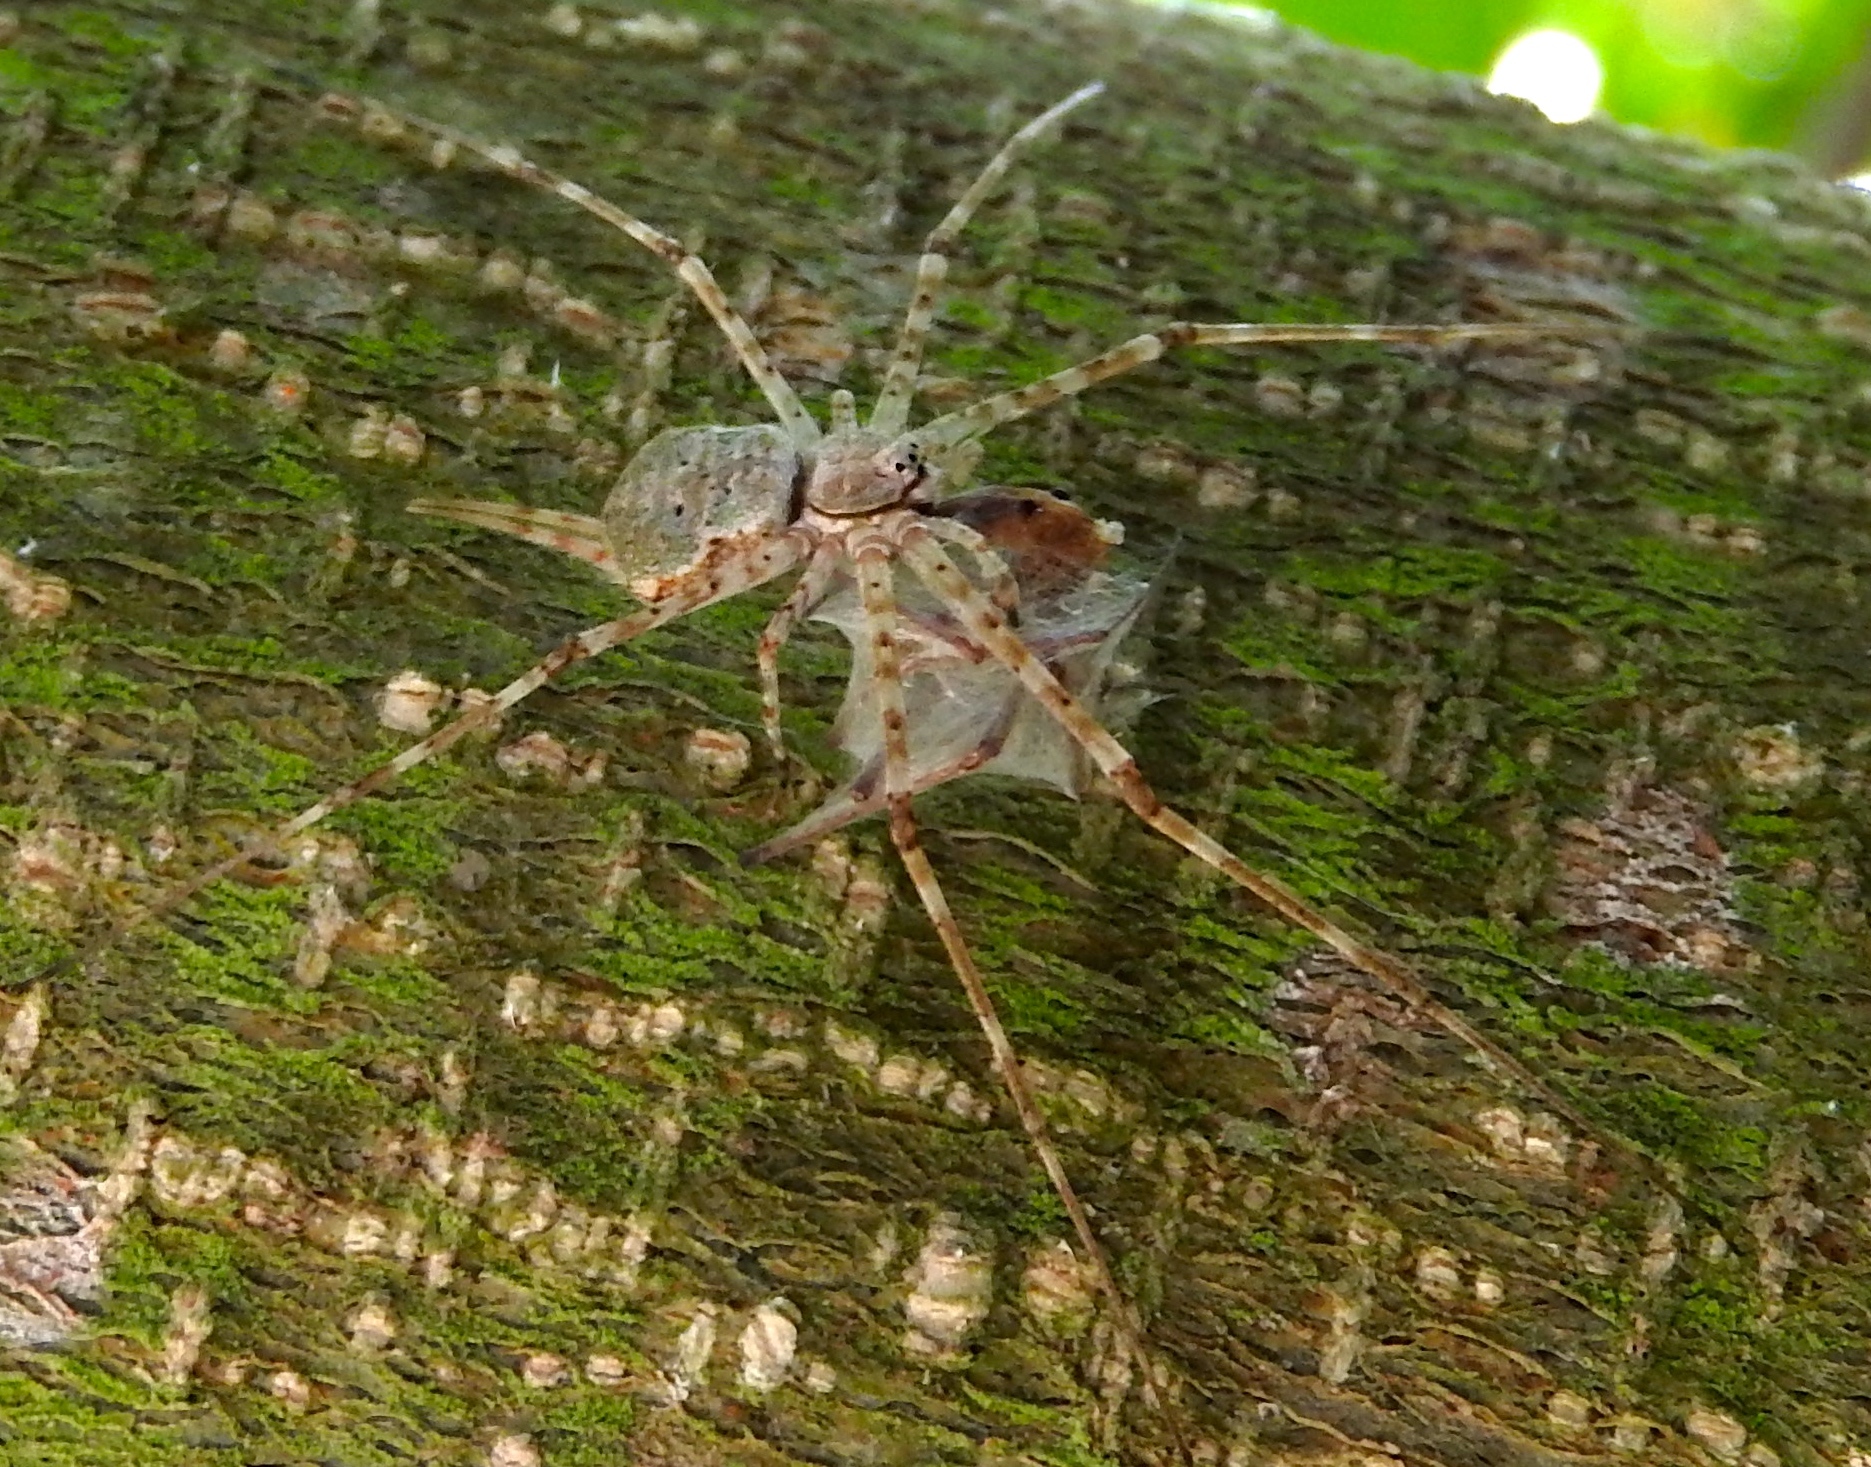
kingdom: Animalia
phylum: Arthropoda
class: Arachnida
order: Araneae
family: Hersiliidae
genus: Neotama
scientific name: Neotama
